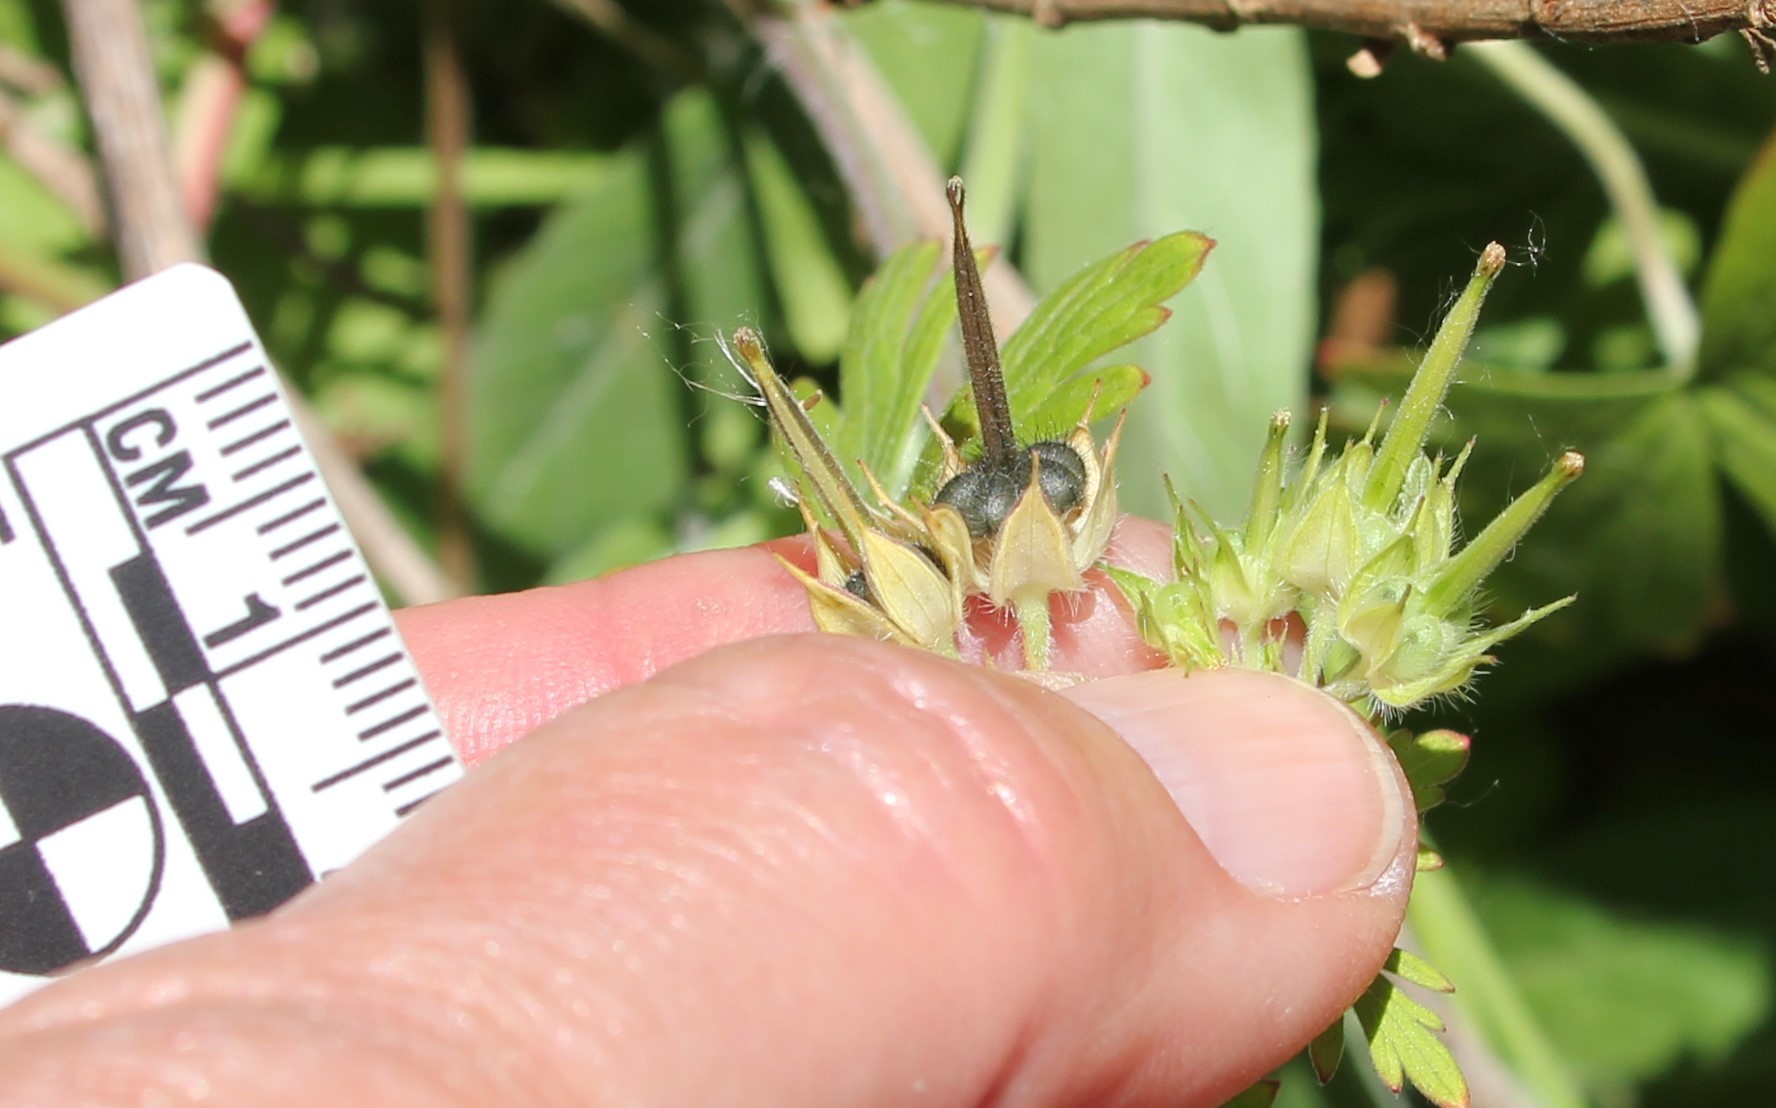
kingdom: Plantae
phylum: Tracheophyta
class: Magnoliopsida
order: Geraniales
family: Geraniaceae
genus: Geranium
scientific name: Geranium carolinianum
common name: Carolina crane's-bill
